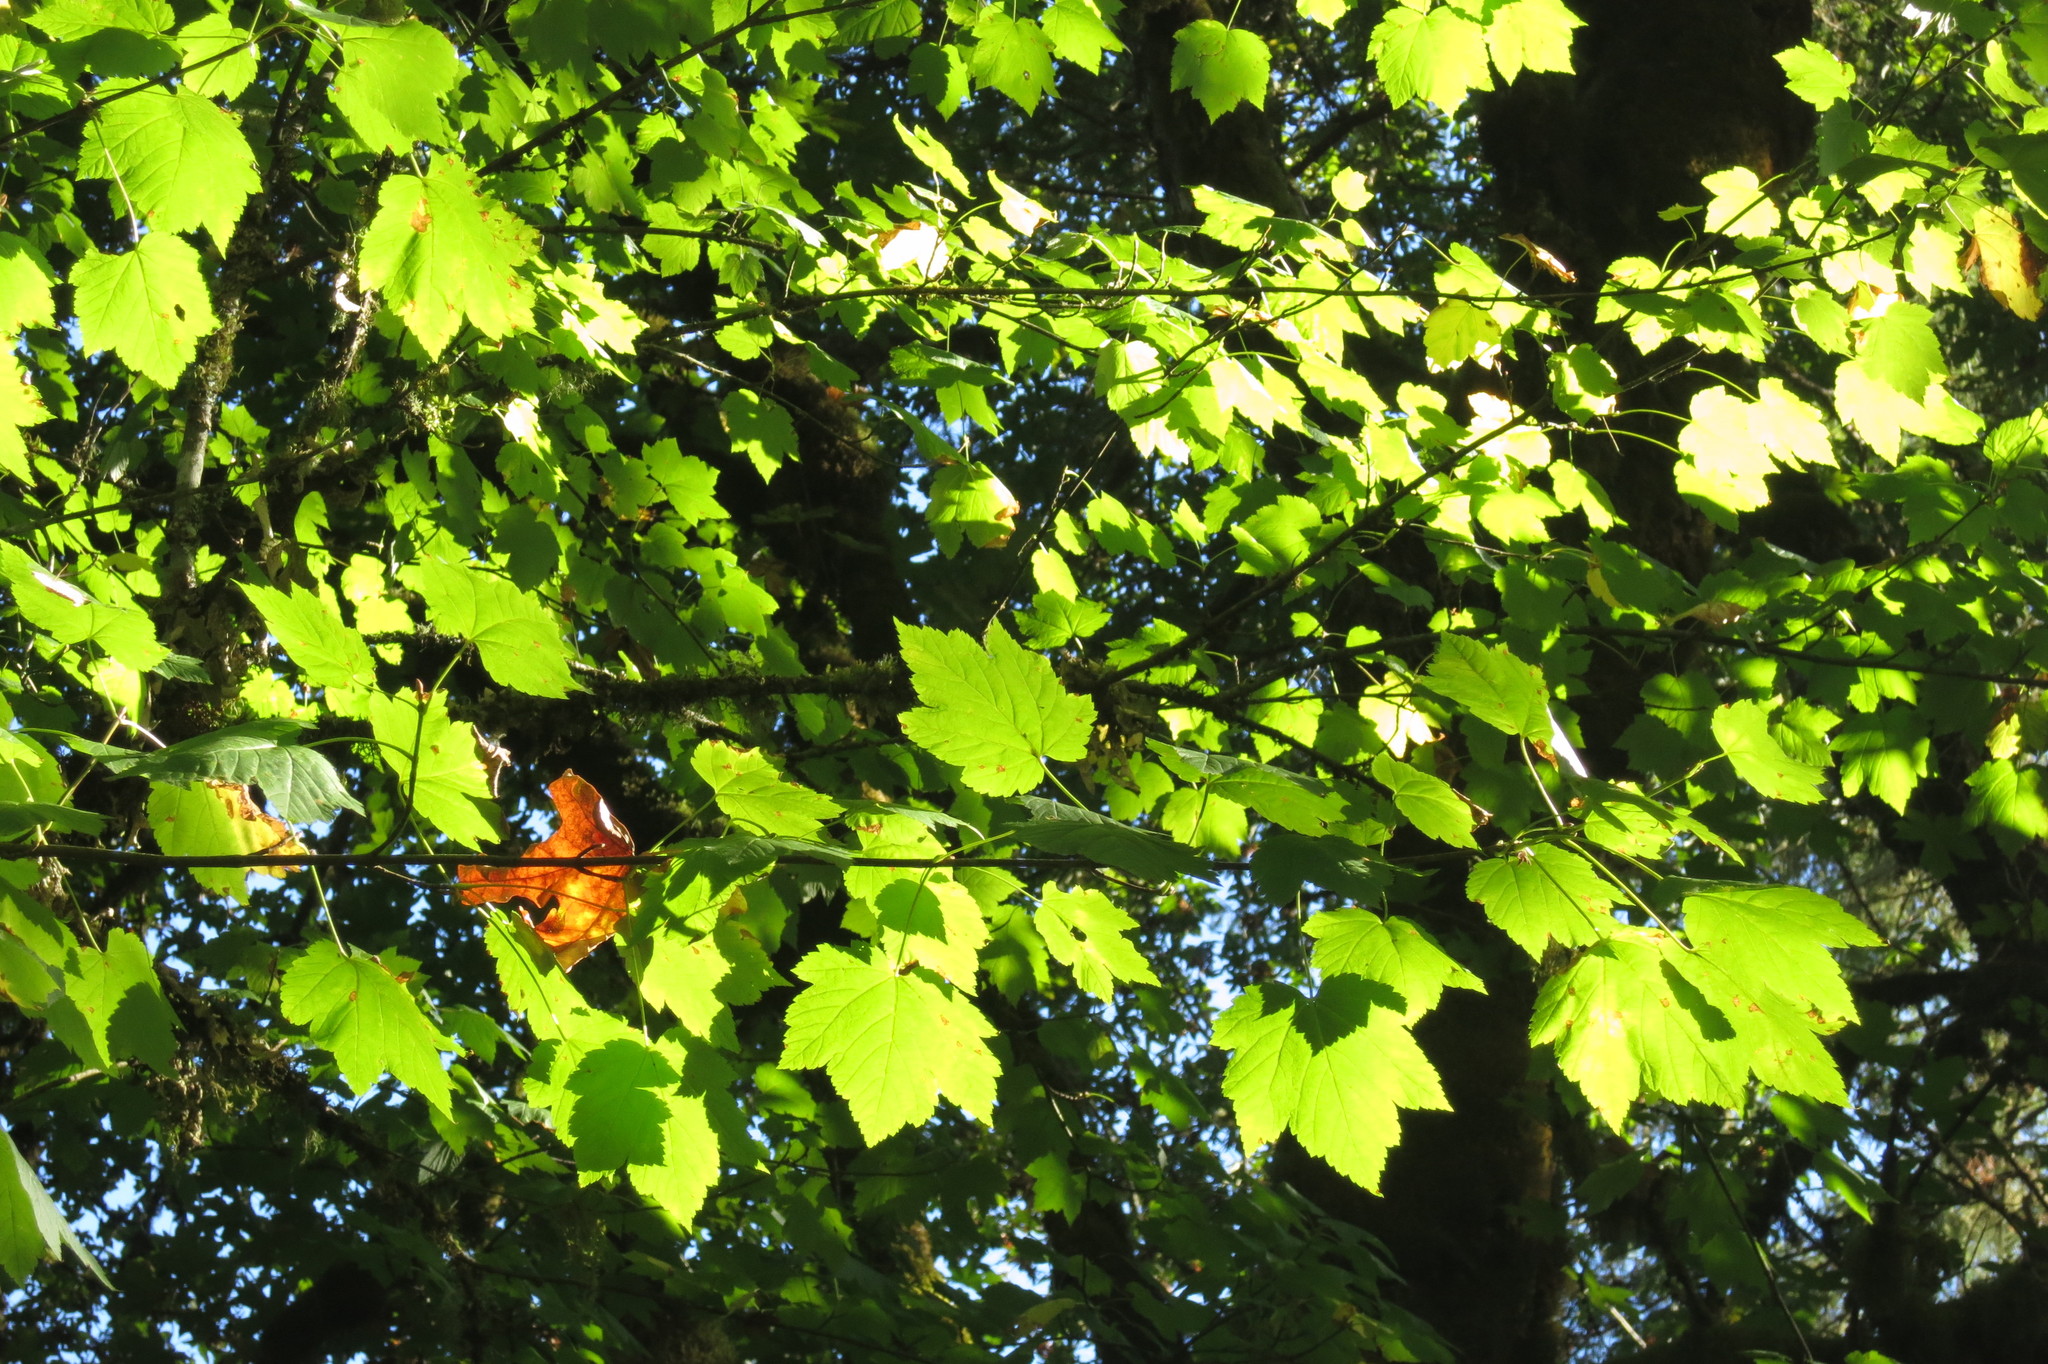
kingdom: Plantae
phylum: Tracheophyta
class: Magnoliopsida
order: Sapindales
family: Sapindaceae
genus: Acer
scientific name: Acer glabrum
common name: Rocky mountain maple
